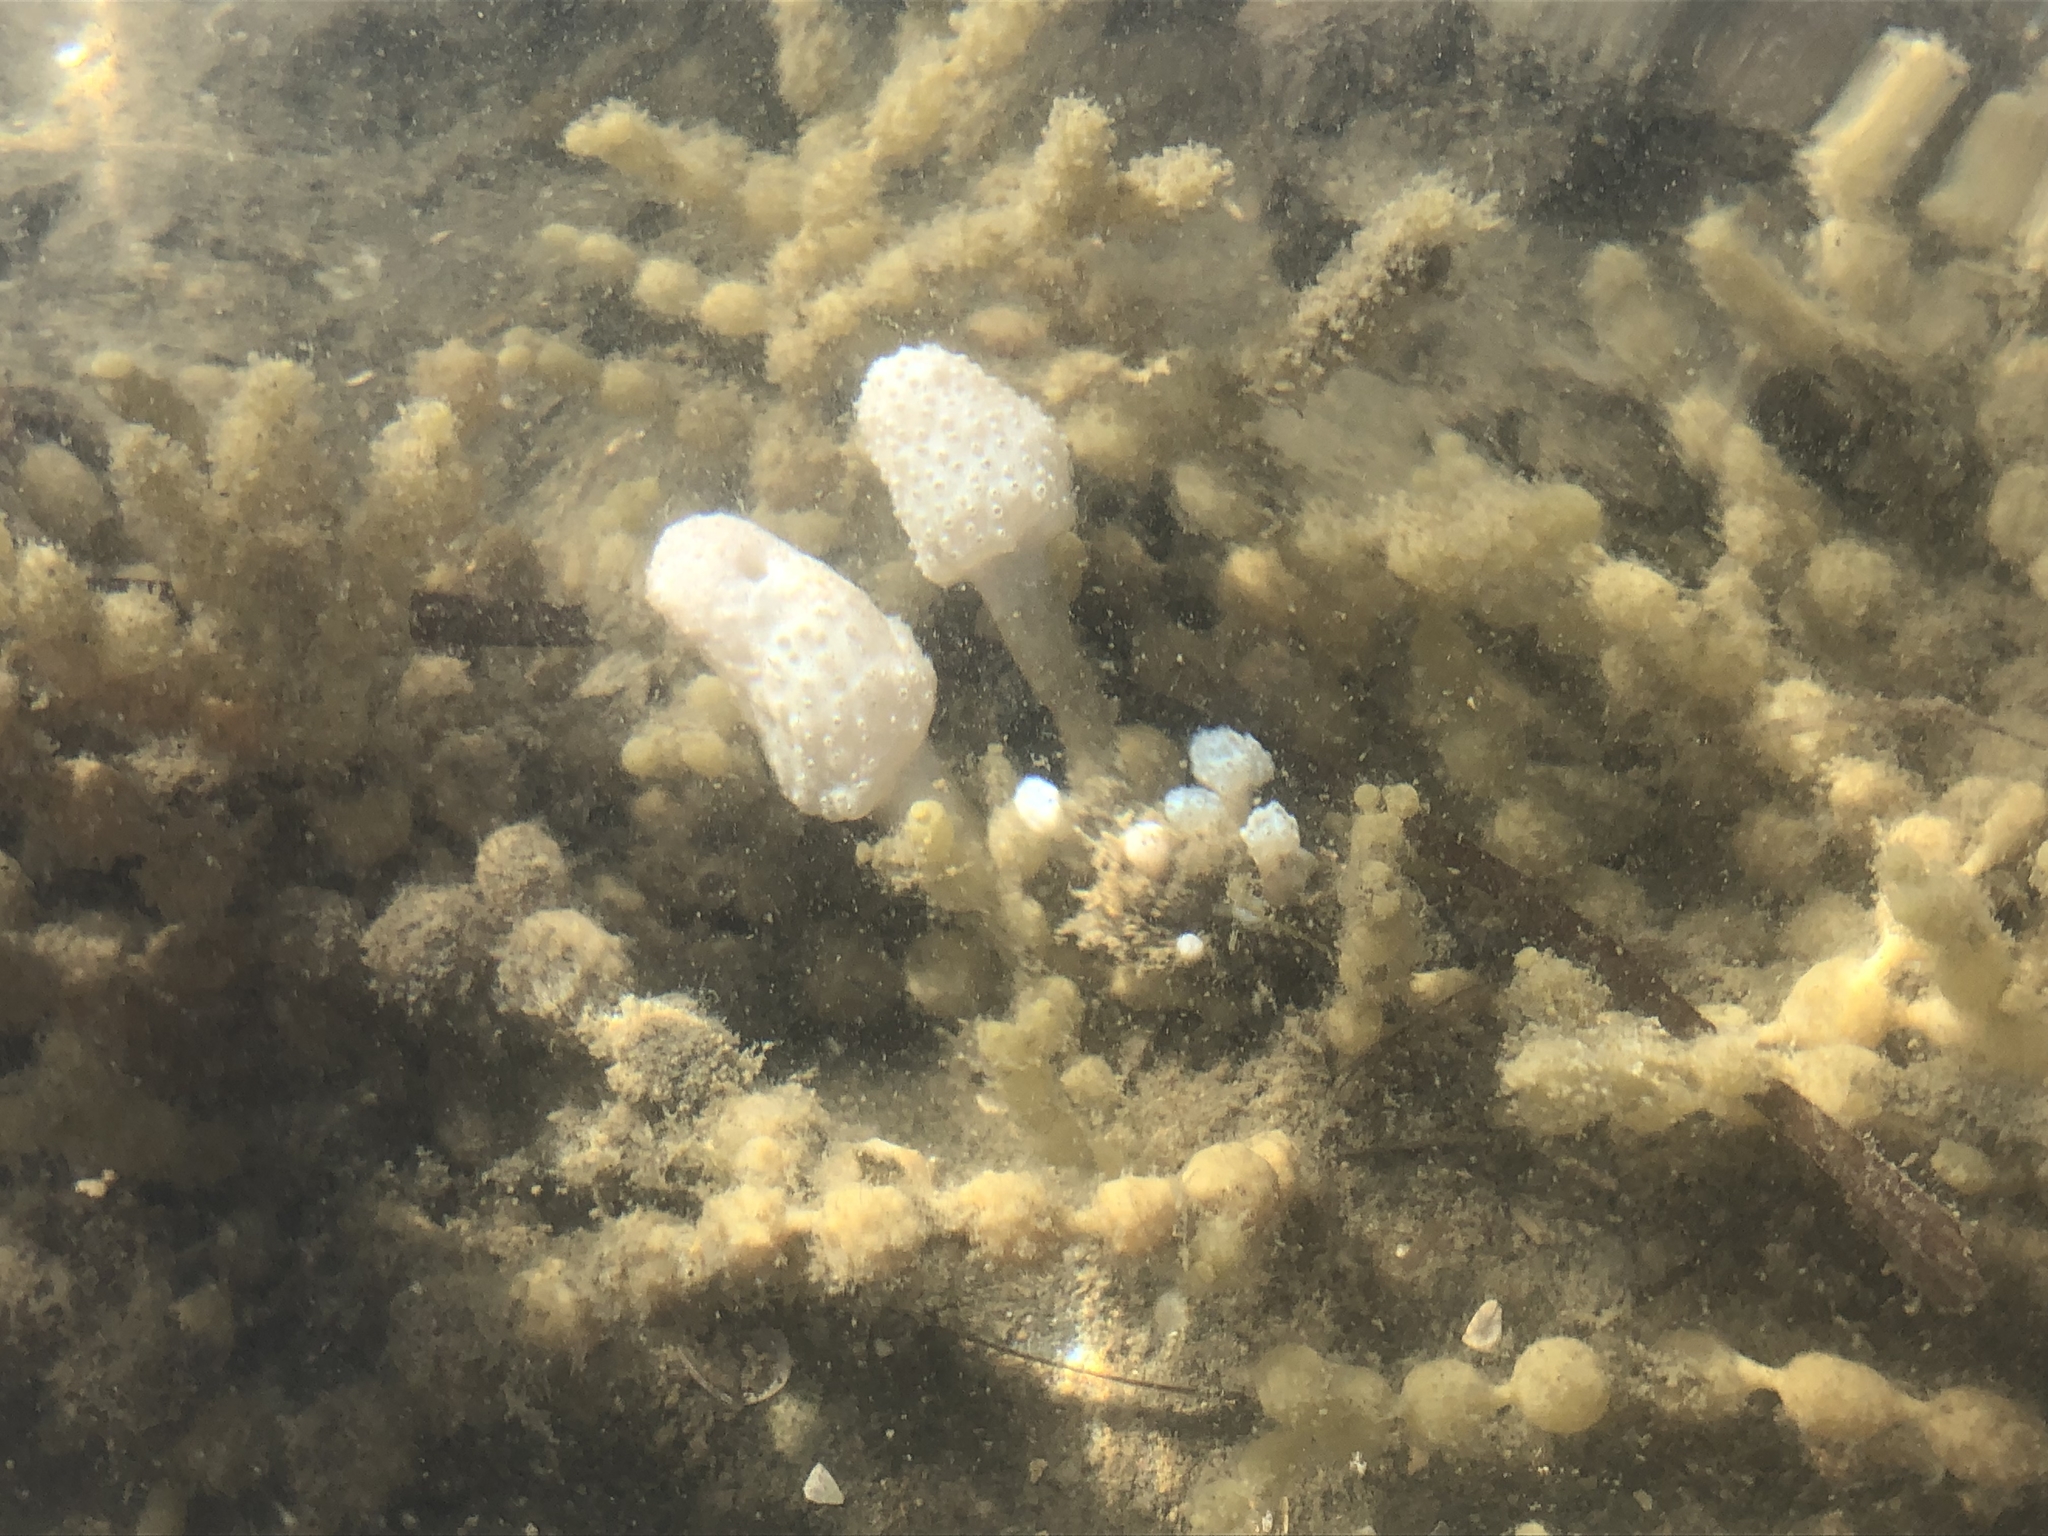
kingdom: Animalia
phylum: Chordata
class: Ascidiacea
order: Aplousobranchia
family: Polycitoridae
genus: Eudistoma
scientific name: Eudistoma elongatum
